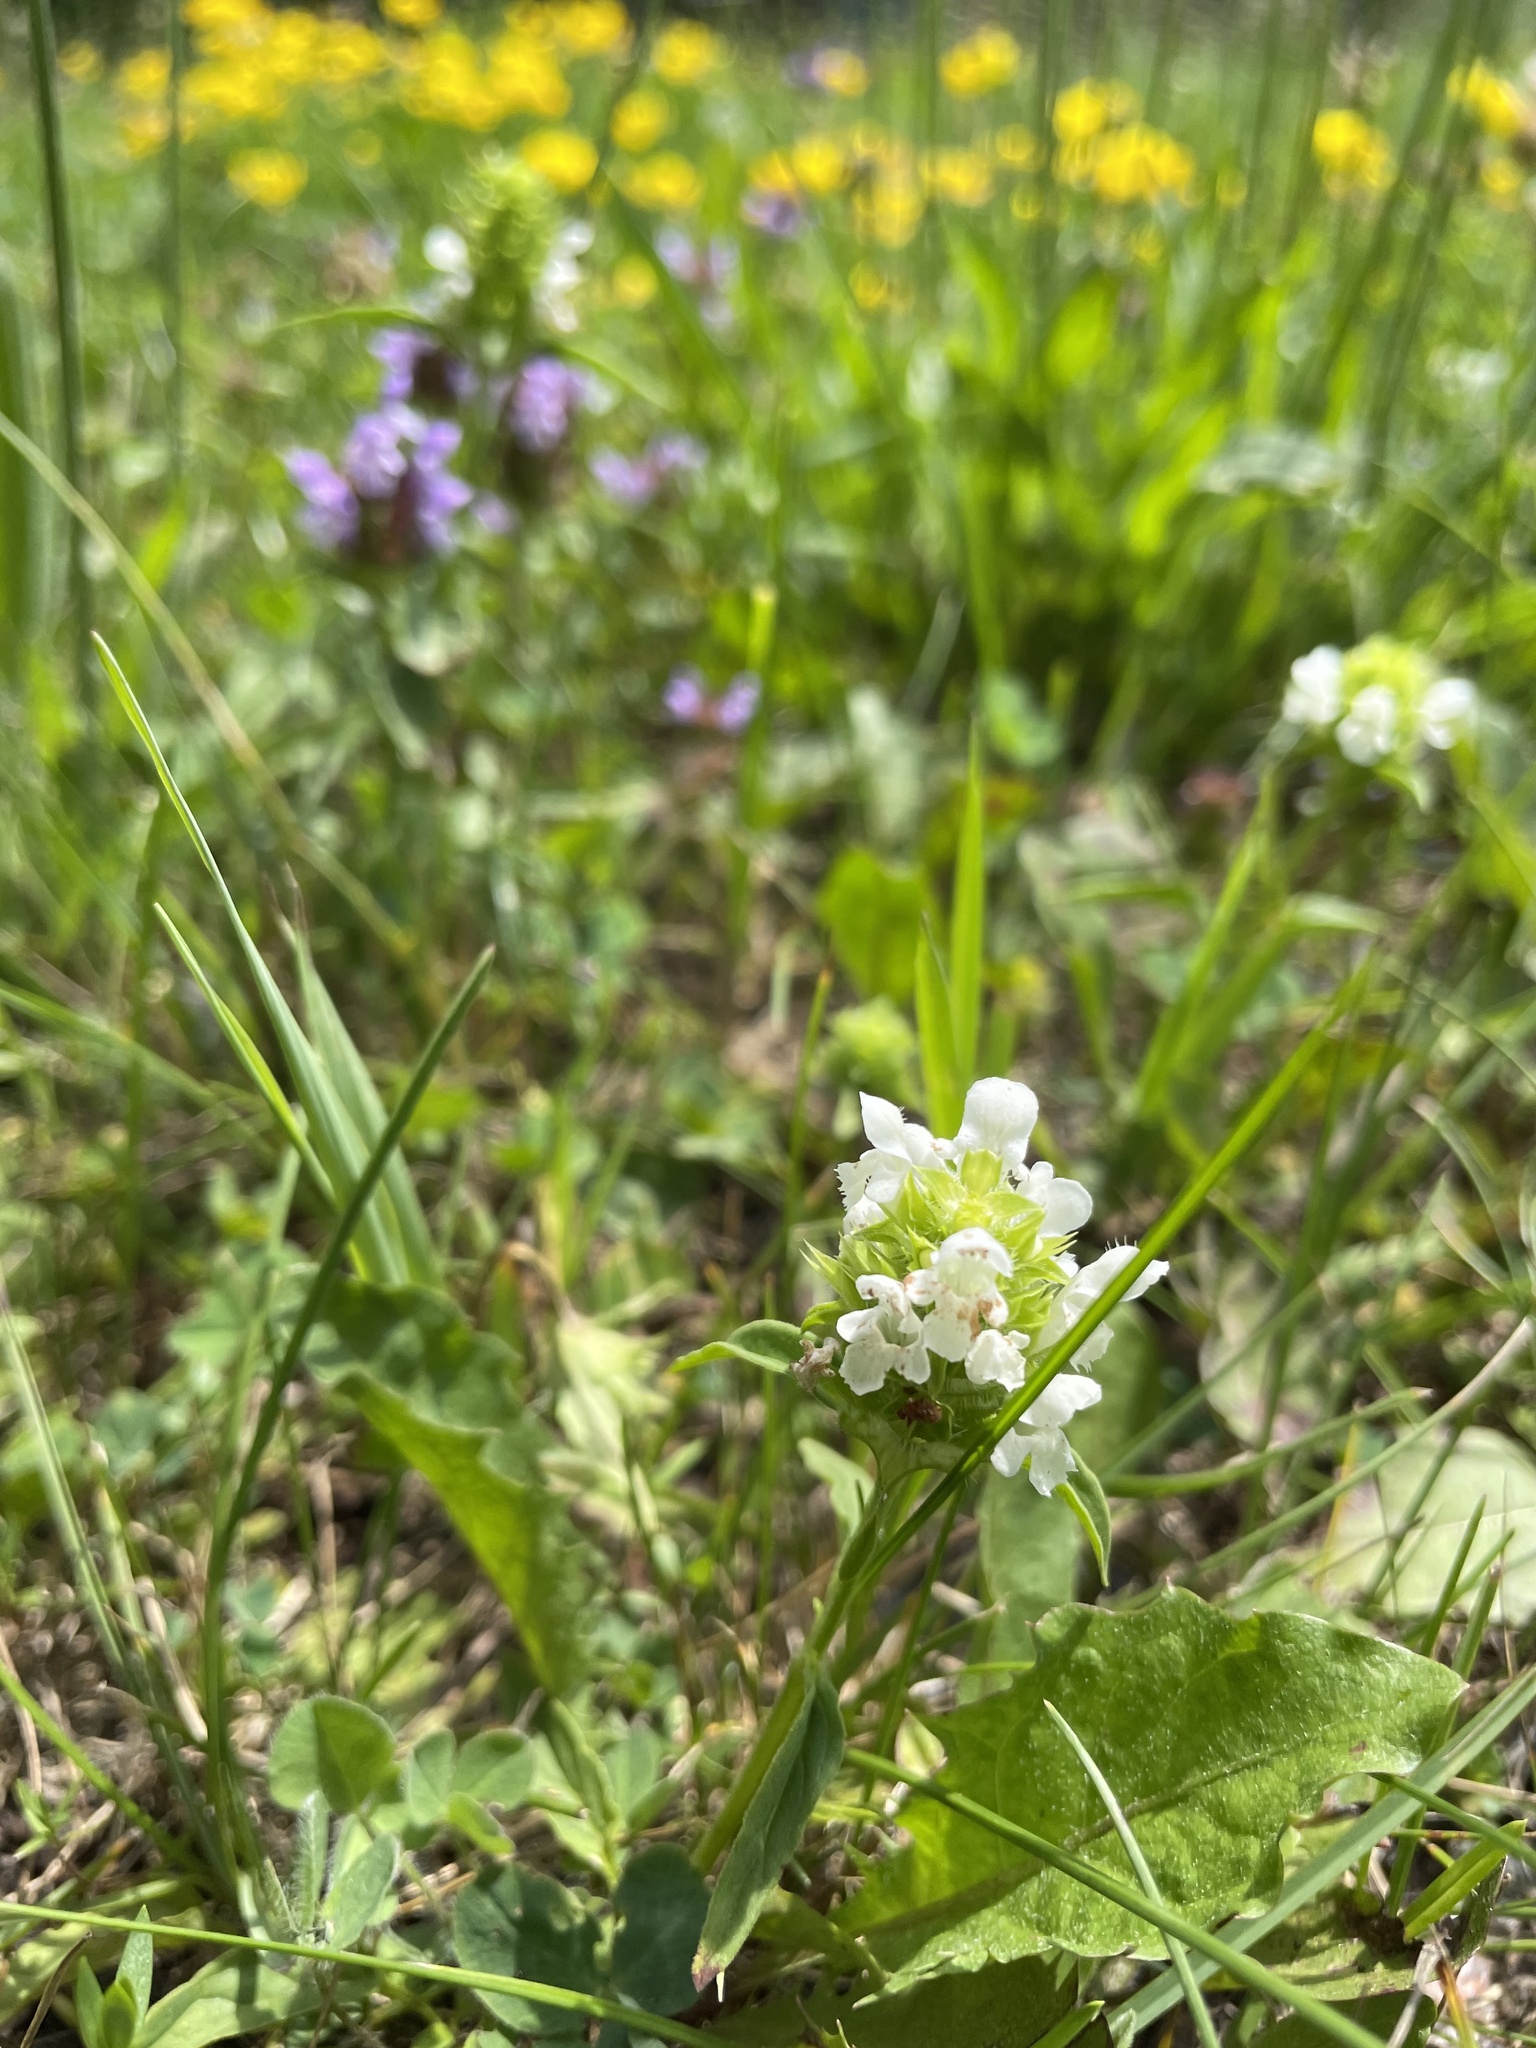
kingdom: Plantae
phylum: Tracheophyta
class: Magnoliopsida
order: Lamiales
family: Lamiaceae
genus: Prunella
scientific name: Prunella vulgaris
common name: Heal-all
